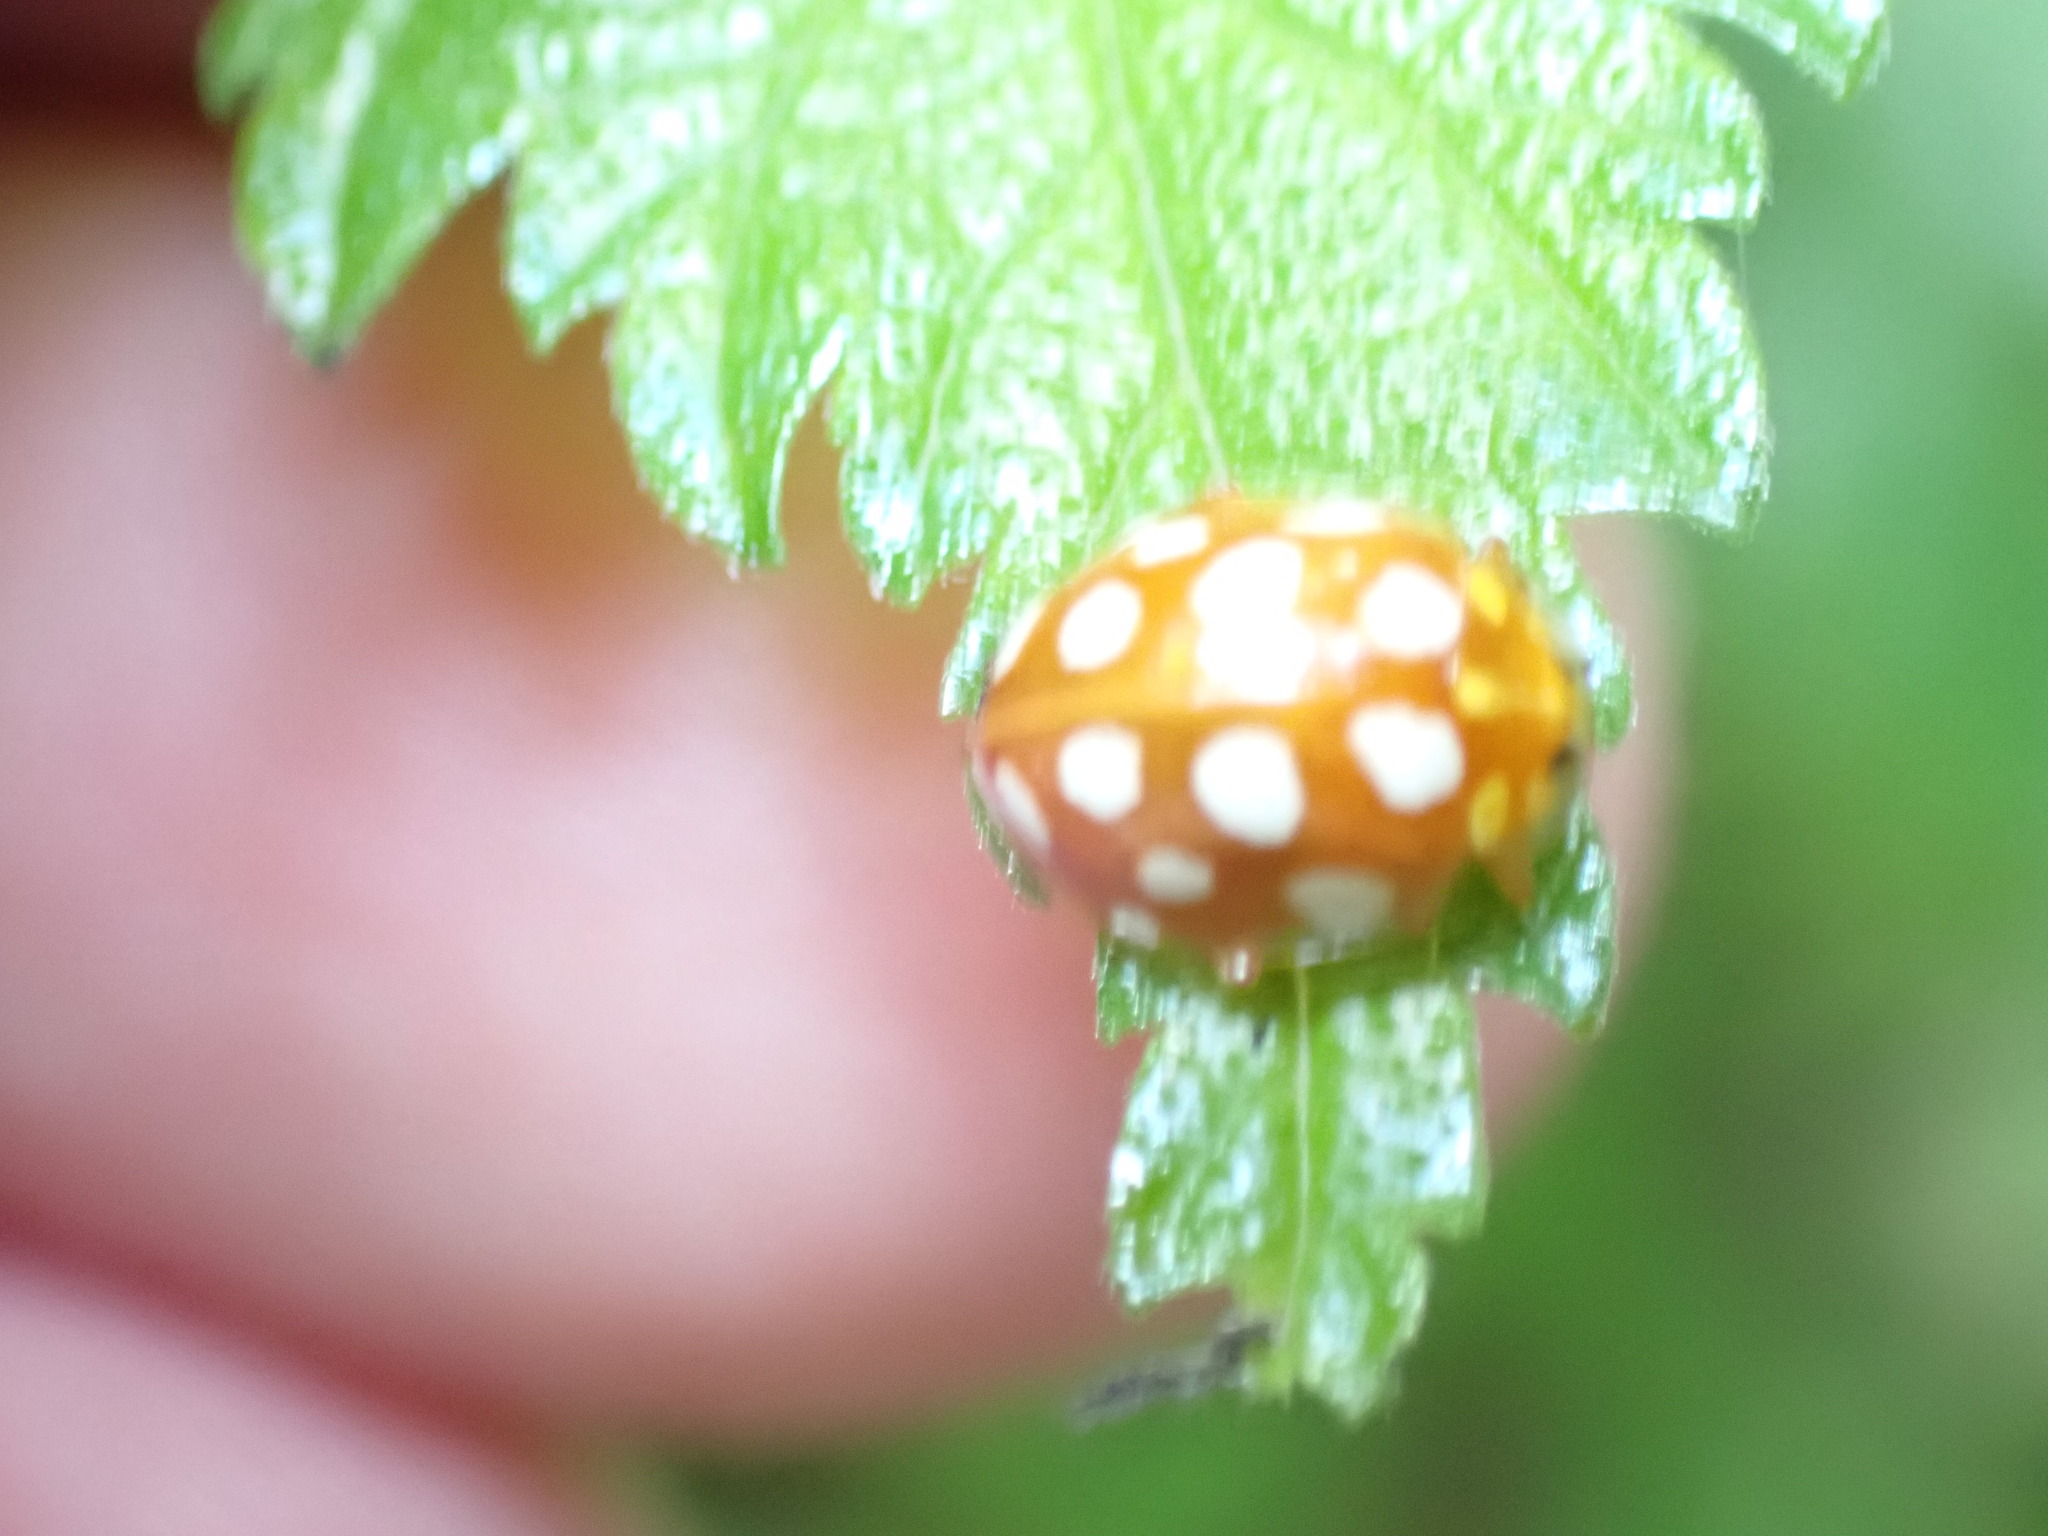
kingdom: Animalia
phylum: Arthropoda
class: Insecta
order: Coleoptera
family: Coccinellidae
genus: Halyzia
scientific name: Halyzia sedecimguttata
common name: Orange ladybird
